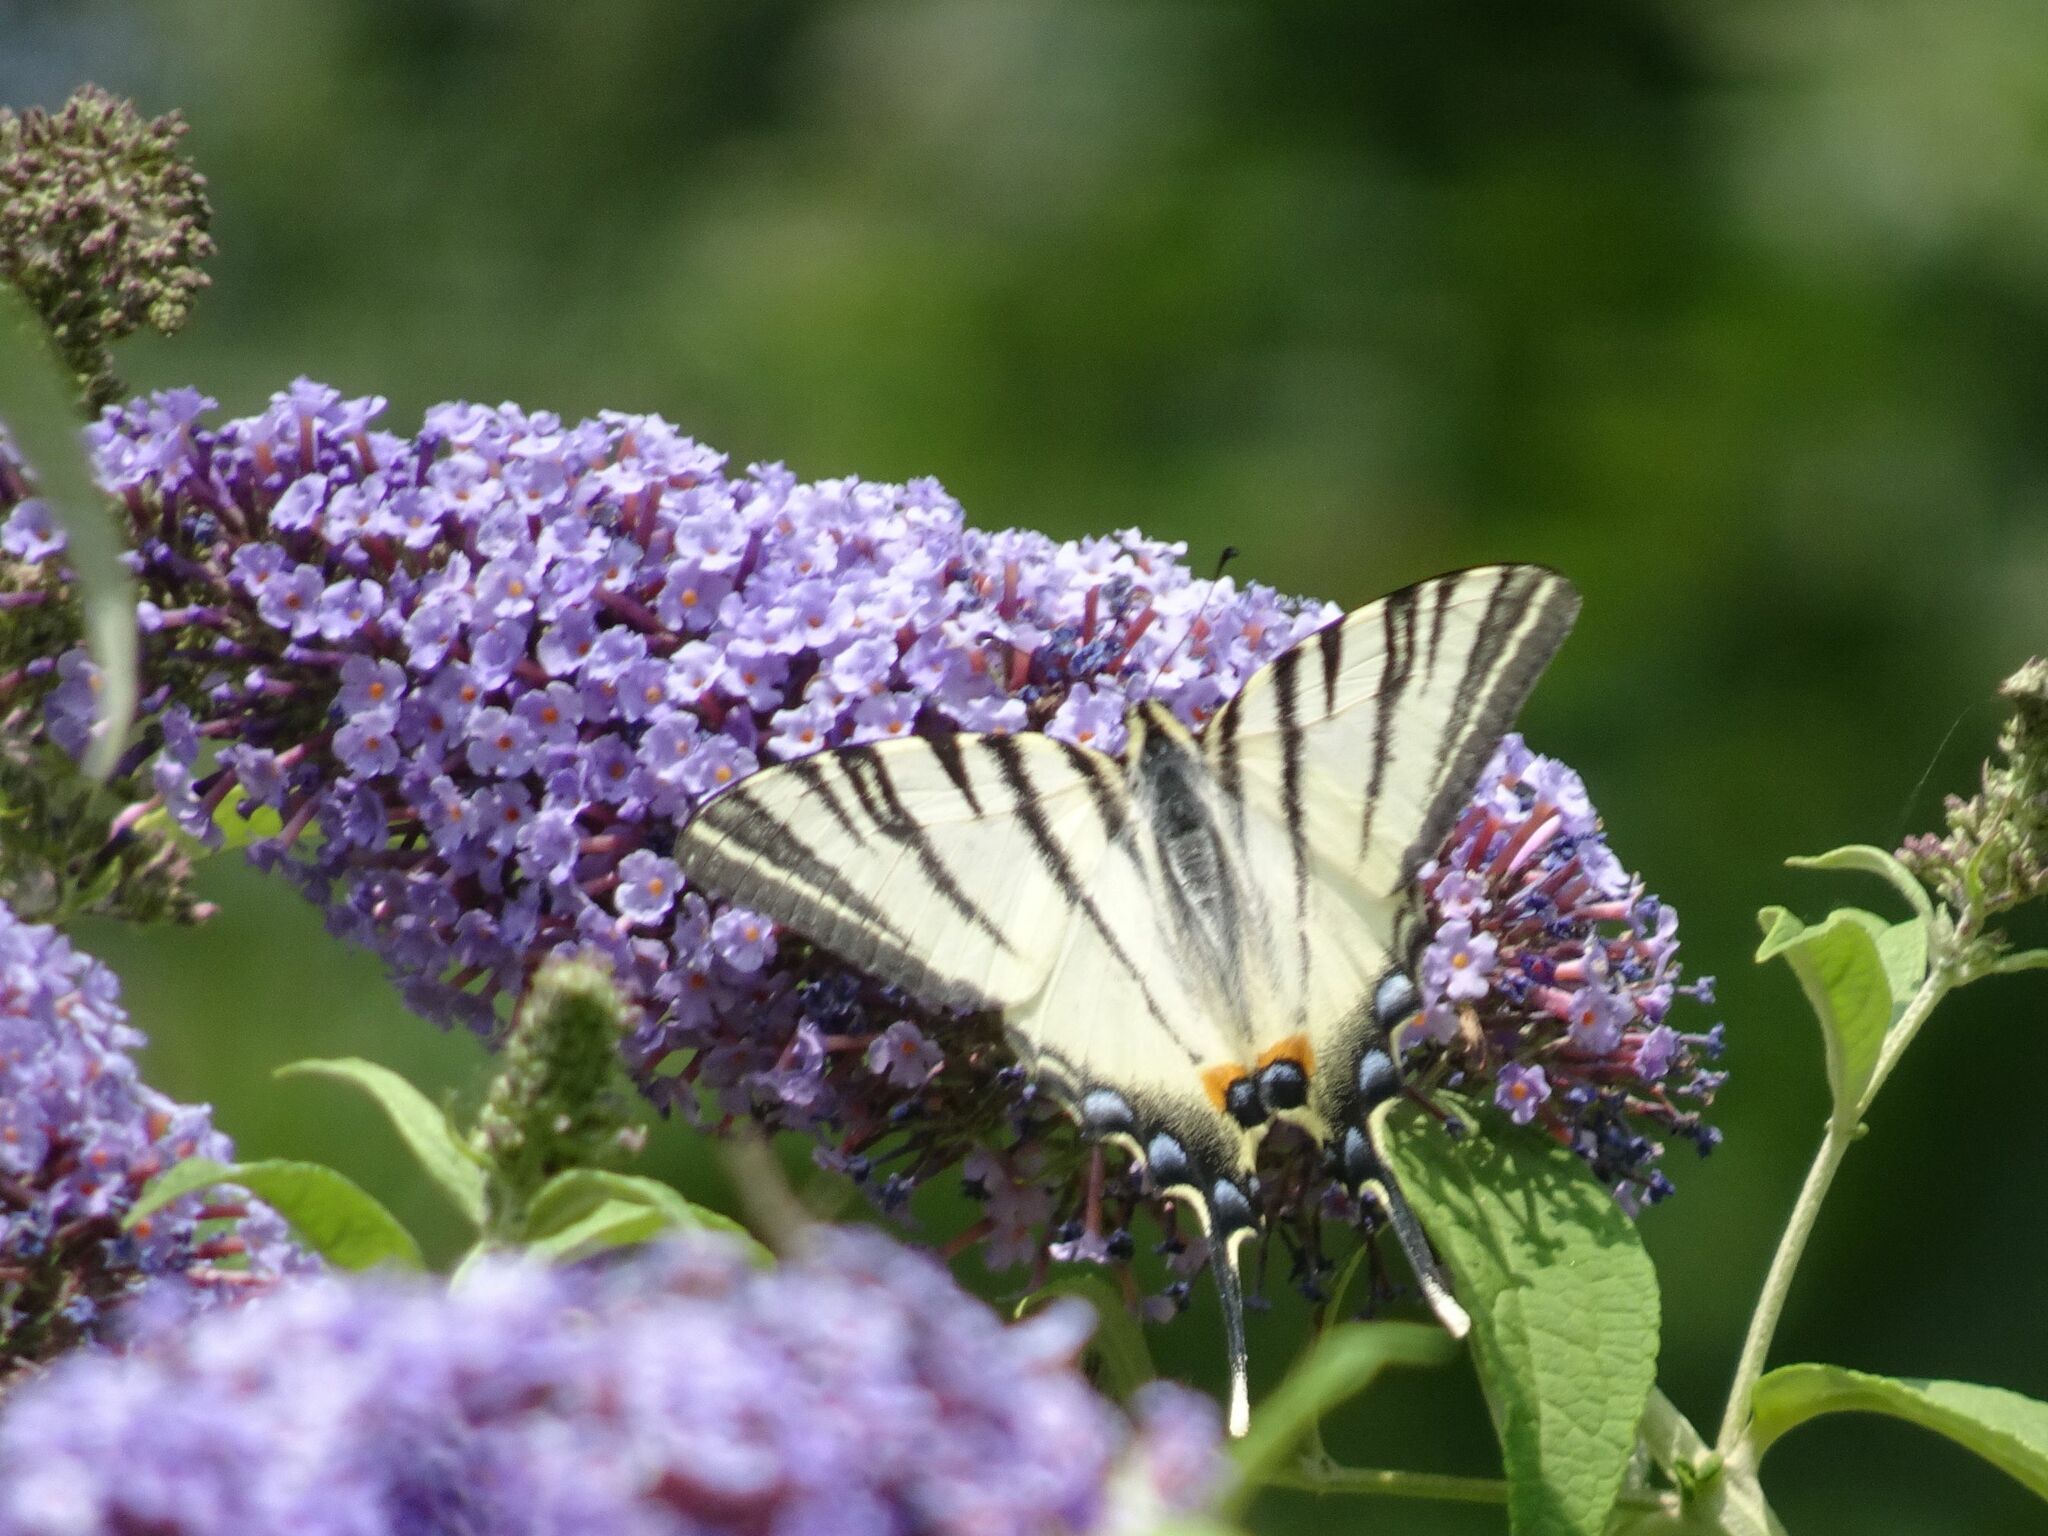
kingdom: Animalia
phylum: Arthropoda
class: Insecta
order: Lepidoptera
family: Papilionidae
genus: Iphiclides
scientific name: Iphiclides podalirius
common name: Scarce swallowtail
